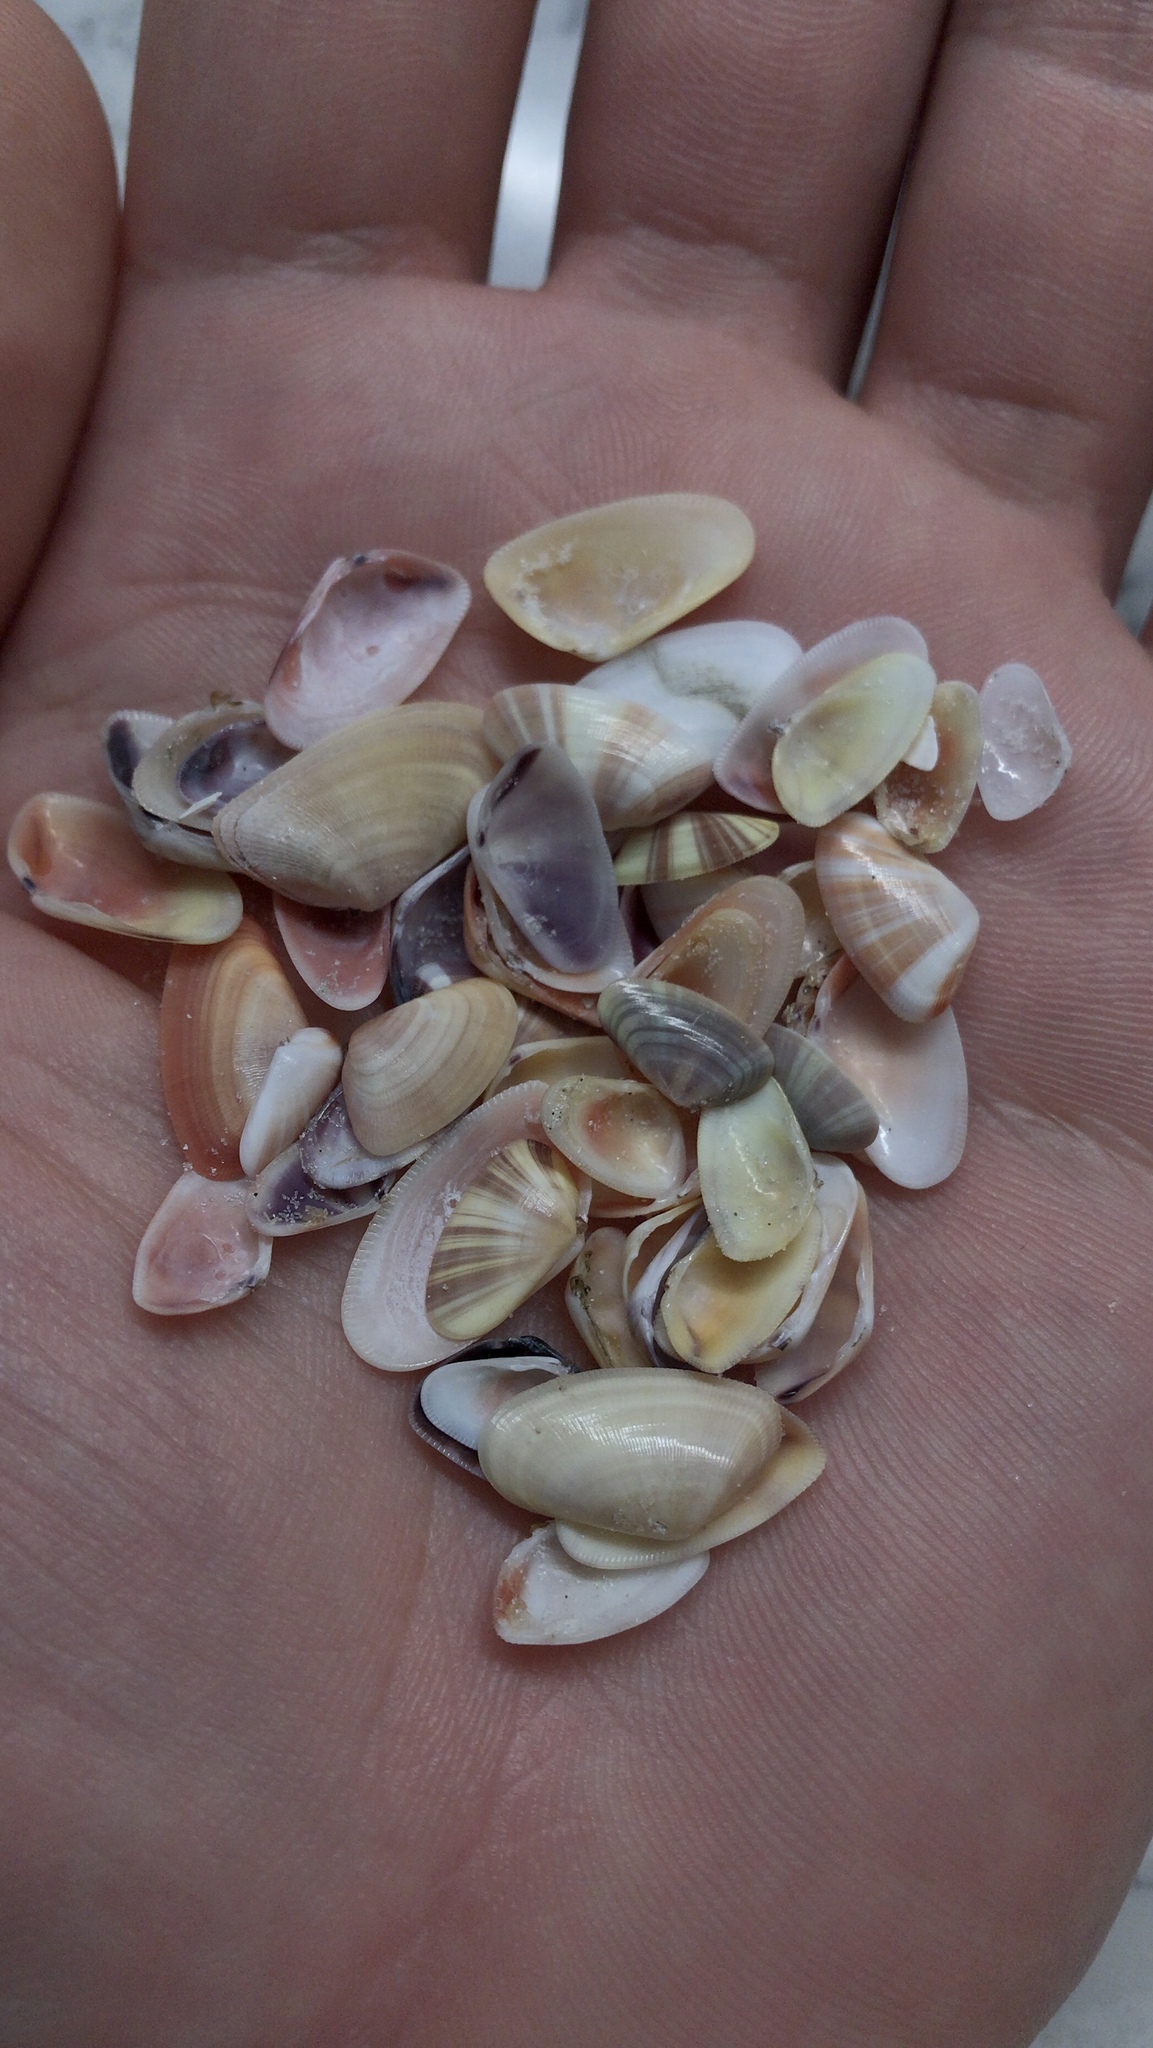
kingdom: Animalia
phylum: Mollusca
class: Bivalvia
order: Cardiida
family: Donacidae
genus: Donax
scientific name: Donax variabilis
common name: Butterfly shell
